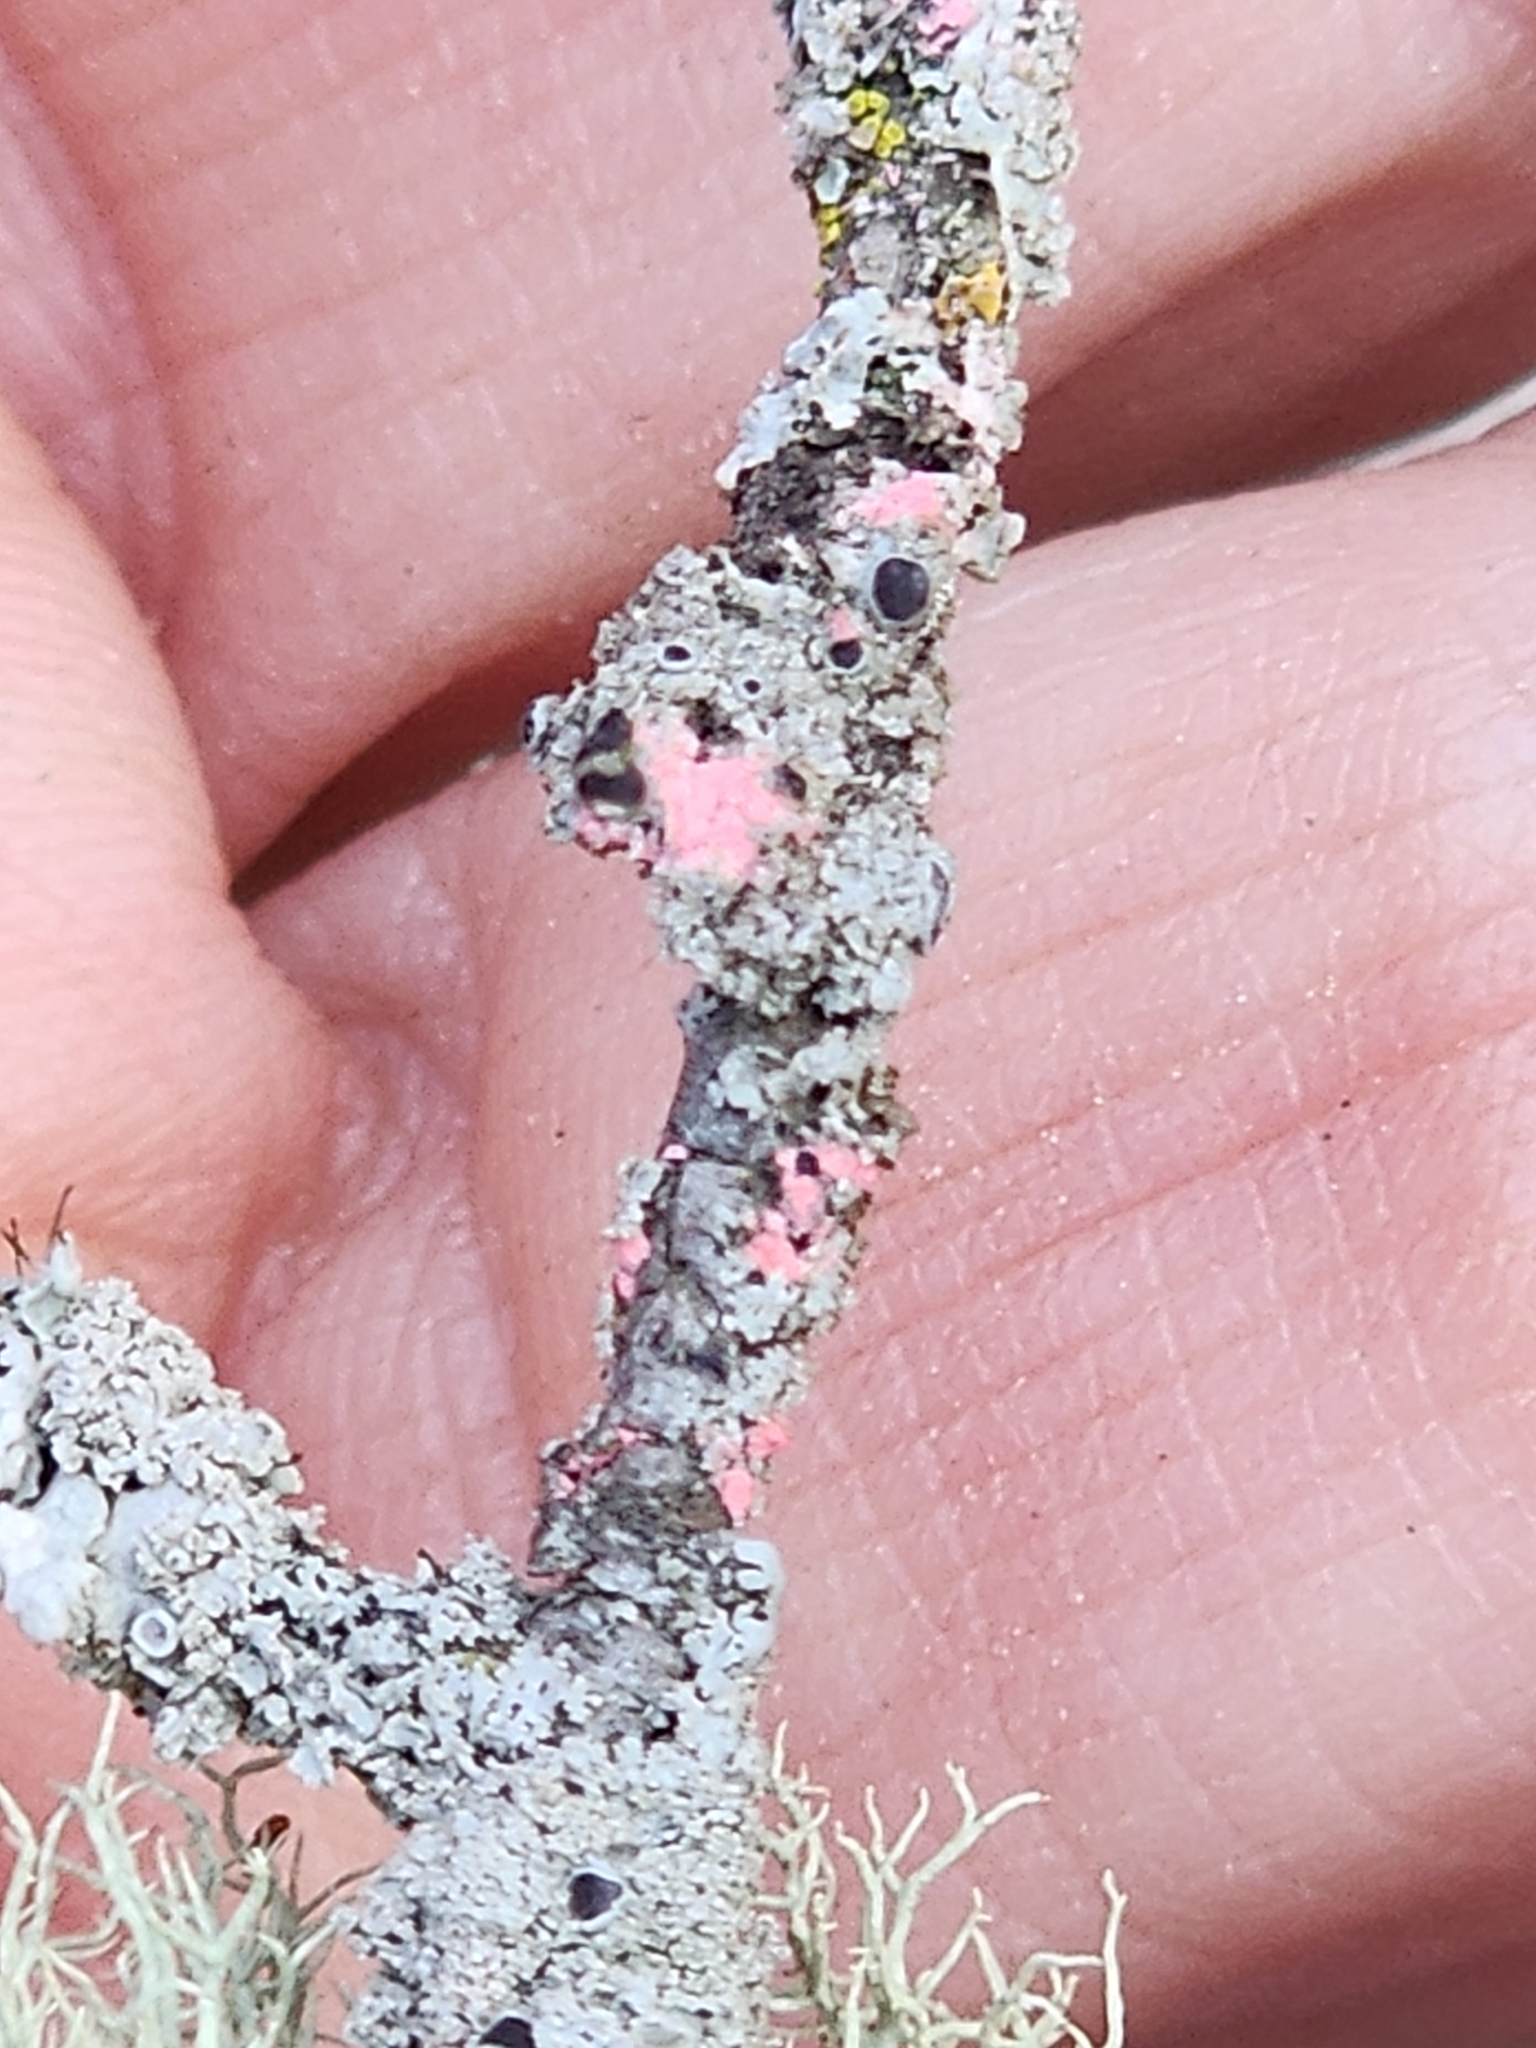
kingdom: Fungi
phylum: Ascomycota
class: Sordariomycetes
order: Hypocreales
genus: Illosporiopsis
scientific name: Illosporiopsis christiansenii
